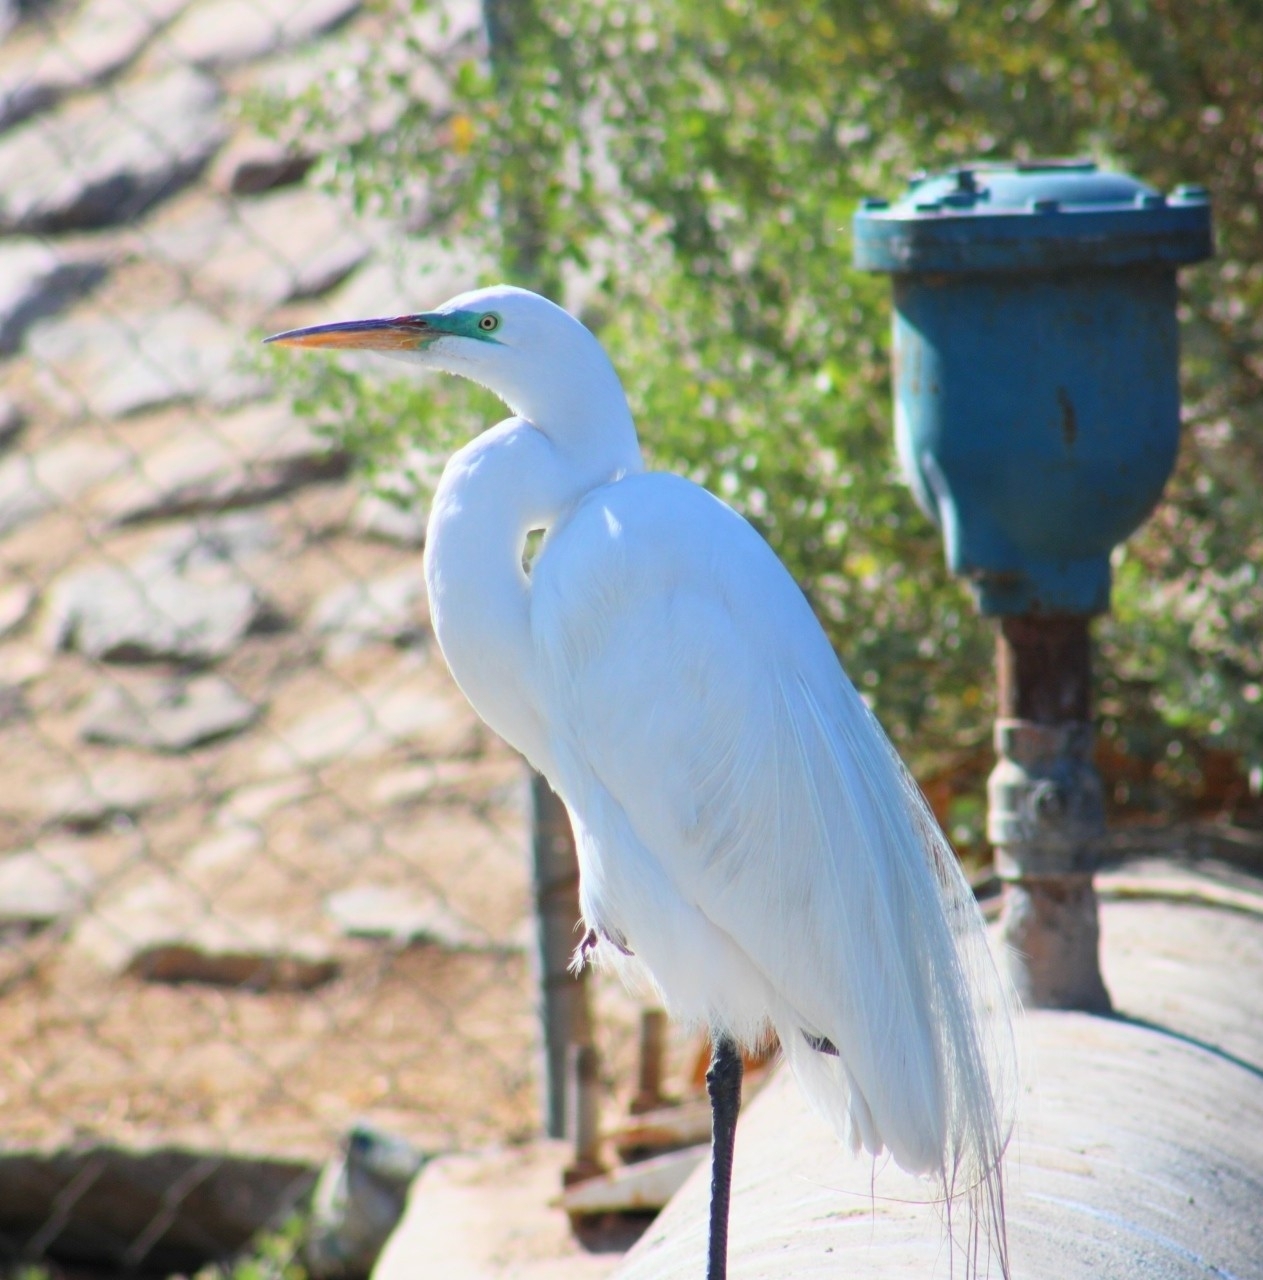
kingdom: Animalia
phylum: Chordata
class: Aves
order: Pelecaniformes
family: Ardeidae
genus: Ardea
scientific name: Ardea alba
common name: Great egret
